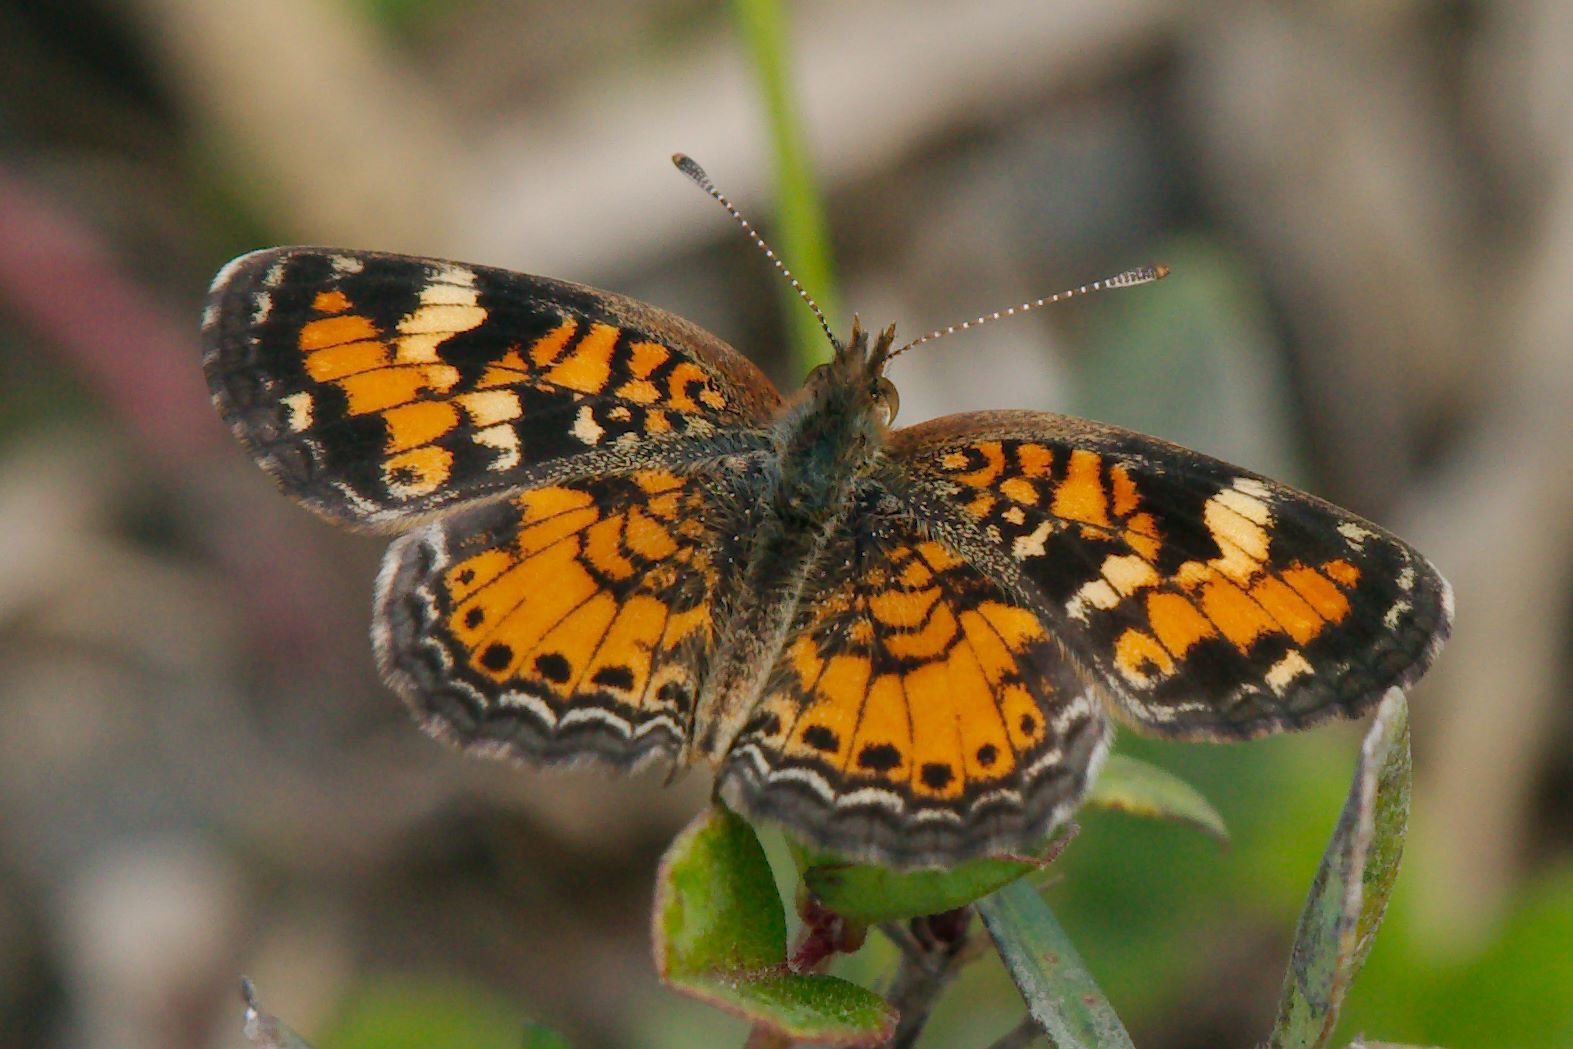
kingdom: Animalia
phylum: Arthropoda
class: Insecta
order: Lepidoptera
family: Nymphalidae
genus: Phyciodes
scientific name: Phyciodes phaon
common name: Phaon crescent
